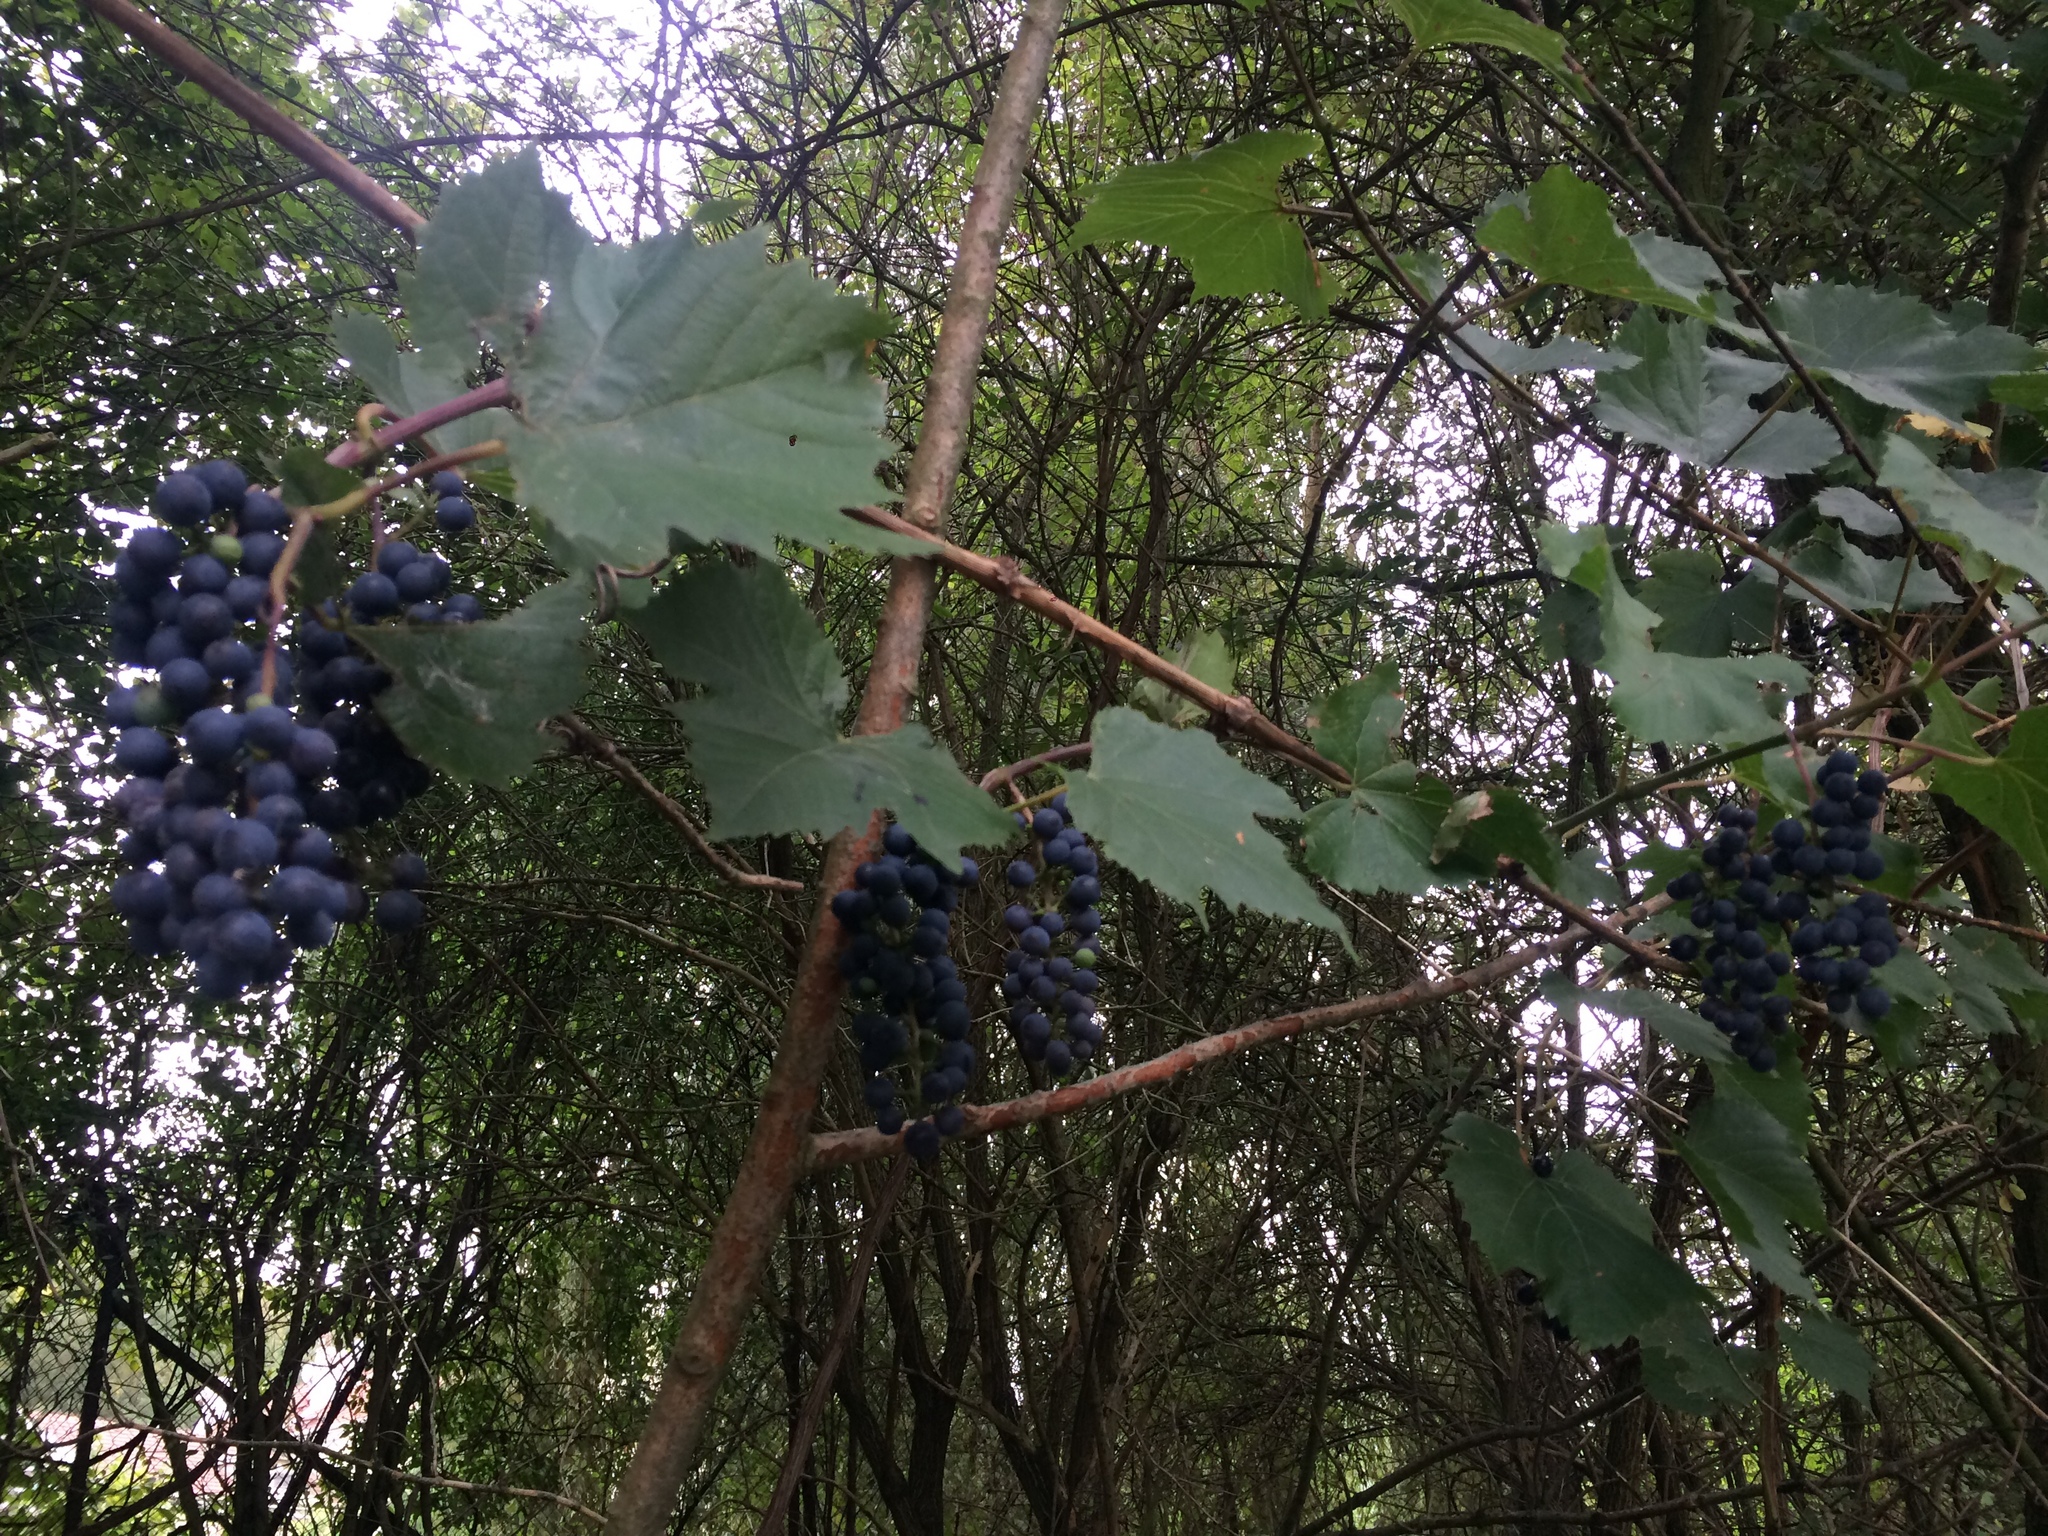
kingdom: Plantae
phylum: Tracheophyta
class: Magnoliopsida
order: Vitales
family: Vitaceae
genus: Vitis
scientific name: Vitis vinifera
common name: Grape-vine
